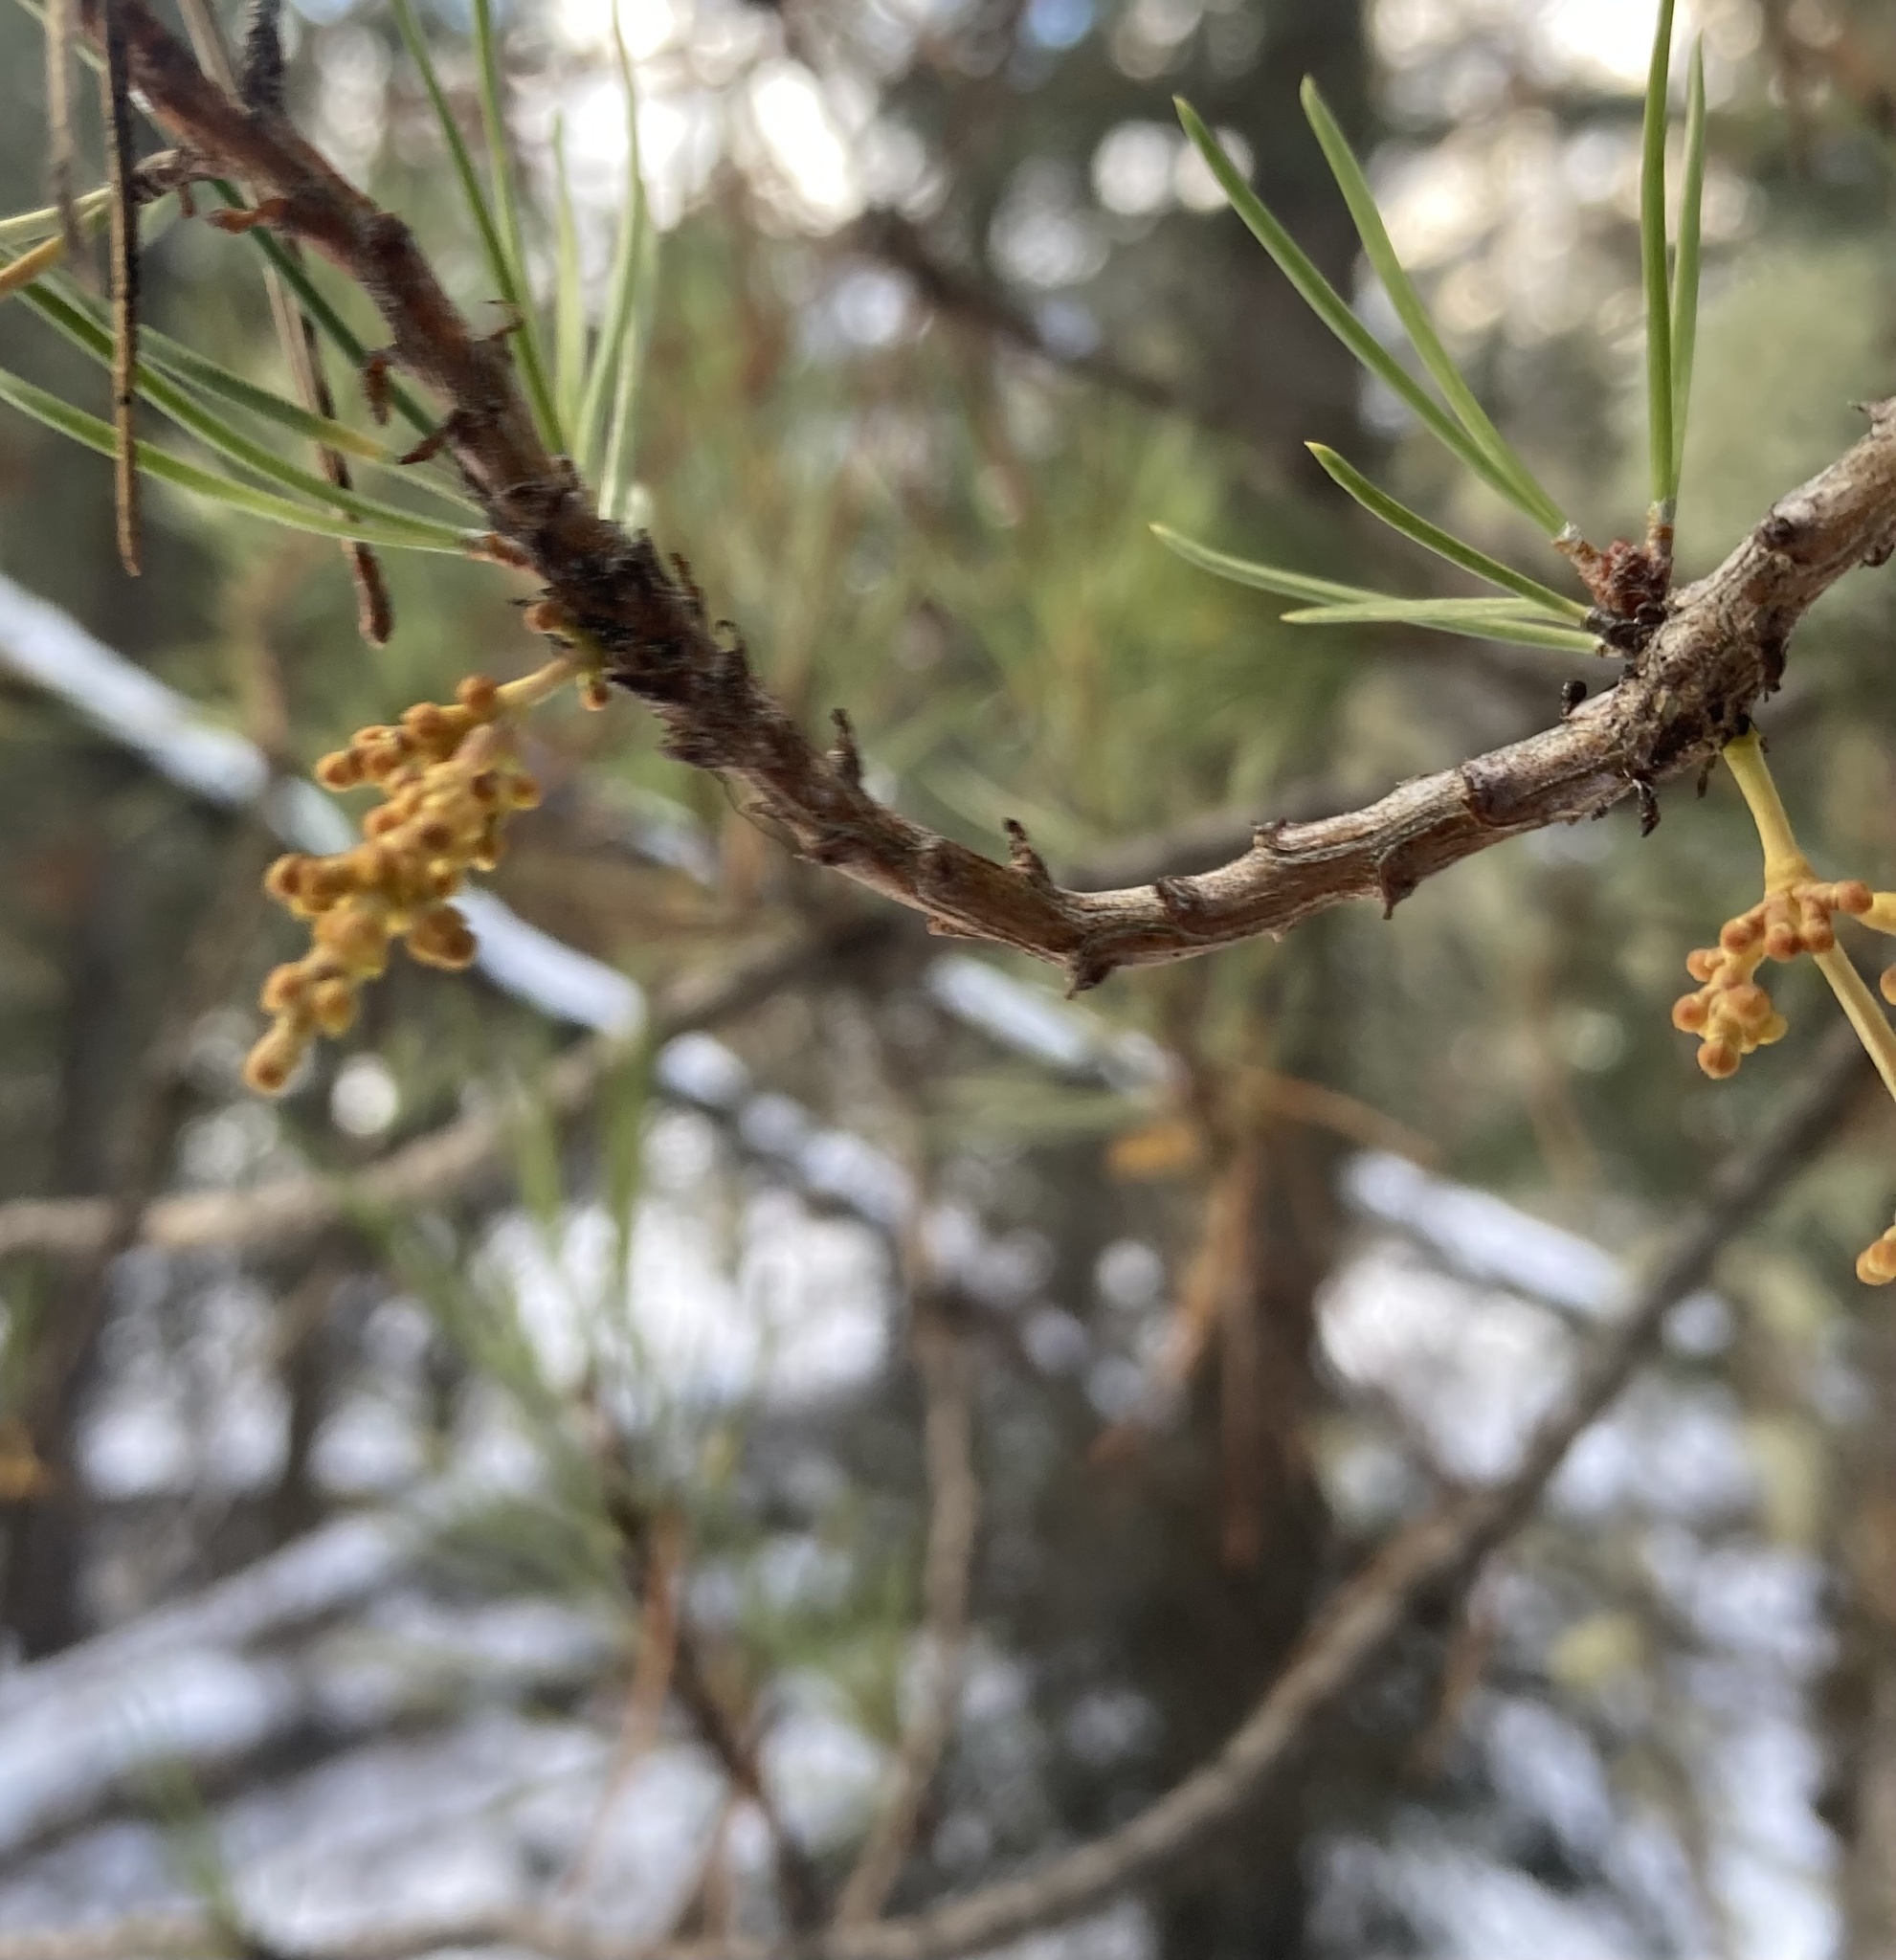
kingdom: Plantae
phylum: Tracheophyta
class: Magnoliopsida
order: Santalales
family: Viscaceae
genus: Arceuthobium
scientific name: Arceuthobium americanum
